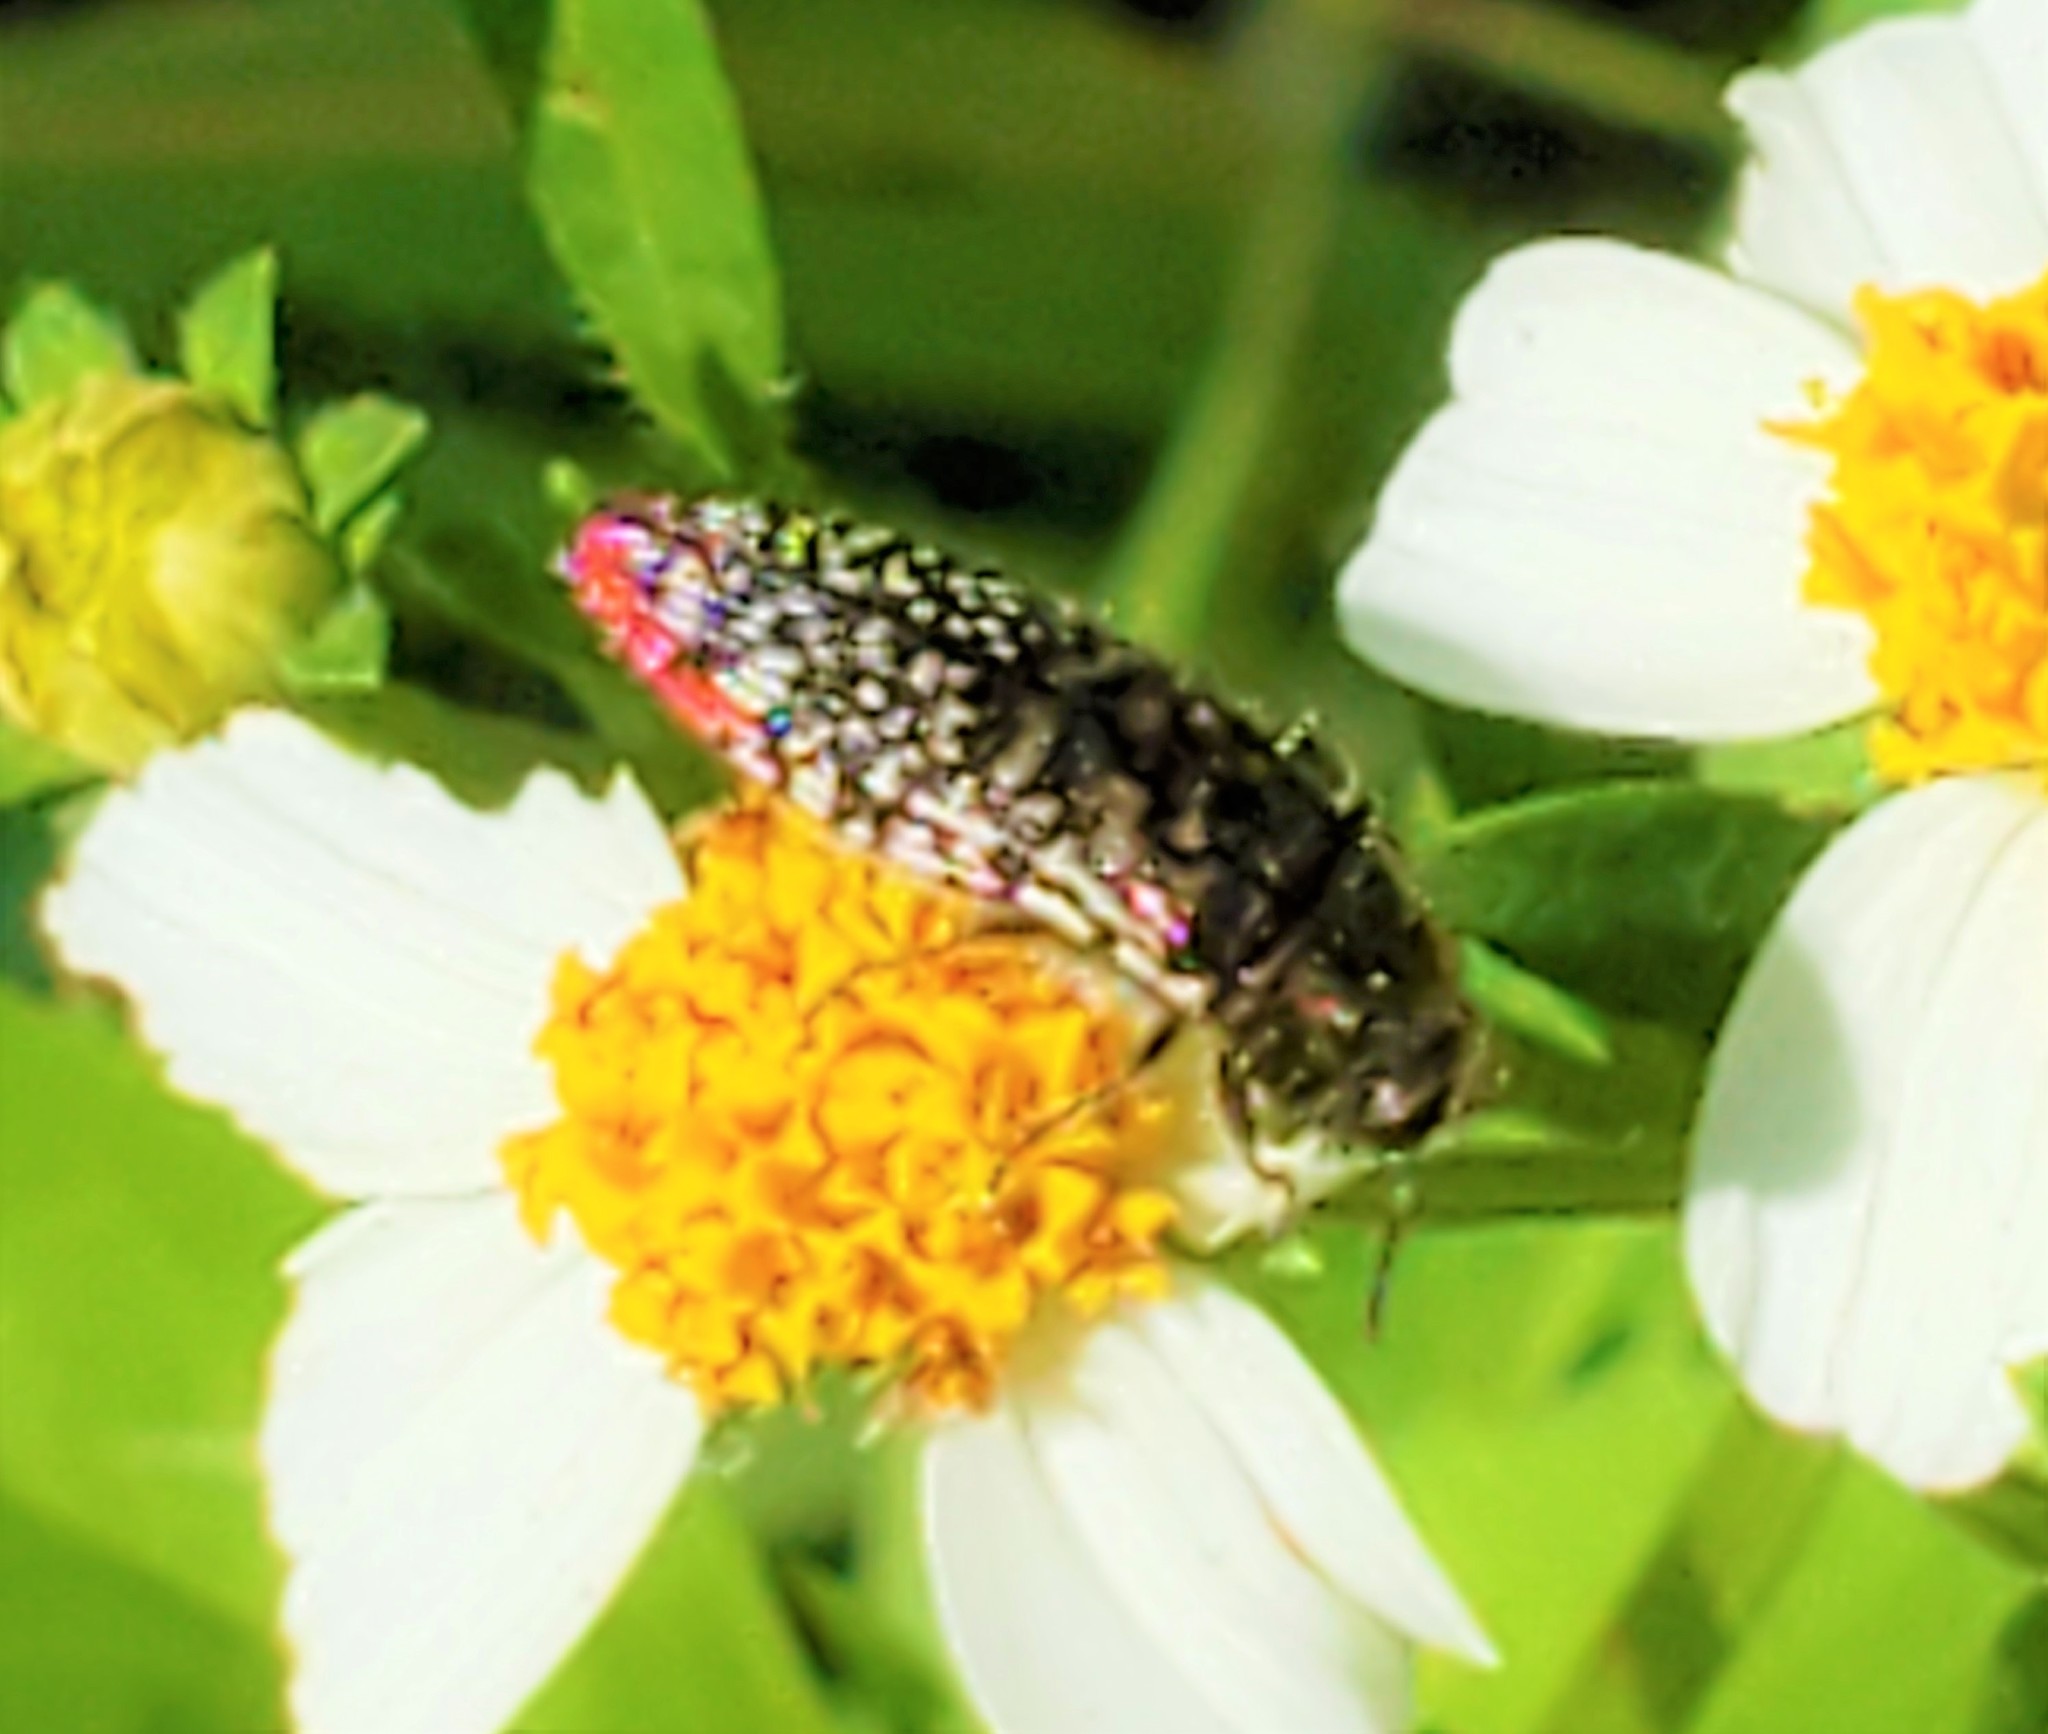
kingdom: Animalia
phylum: Arthropoda
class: Insecta
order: Coleoptera
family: Buprestidae
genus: Acmaeodera
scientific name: Acmaeodera haemorrhoa
